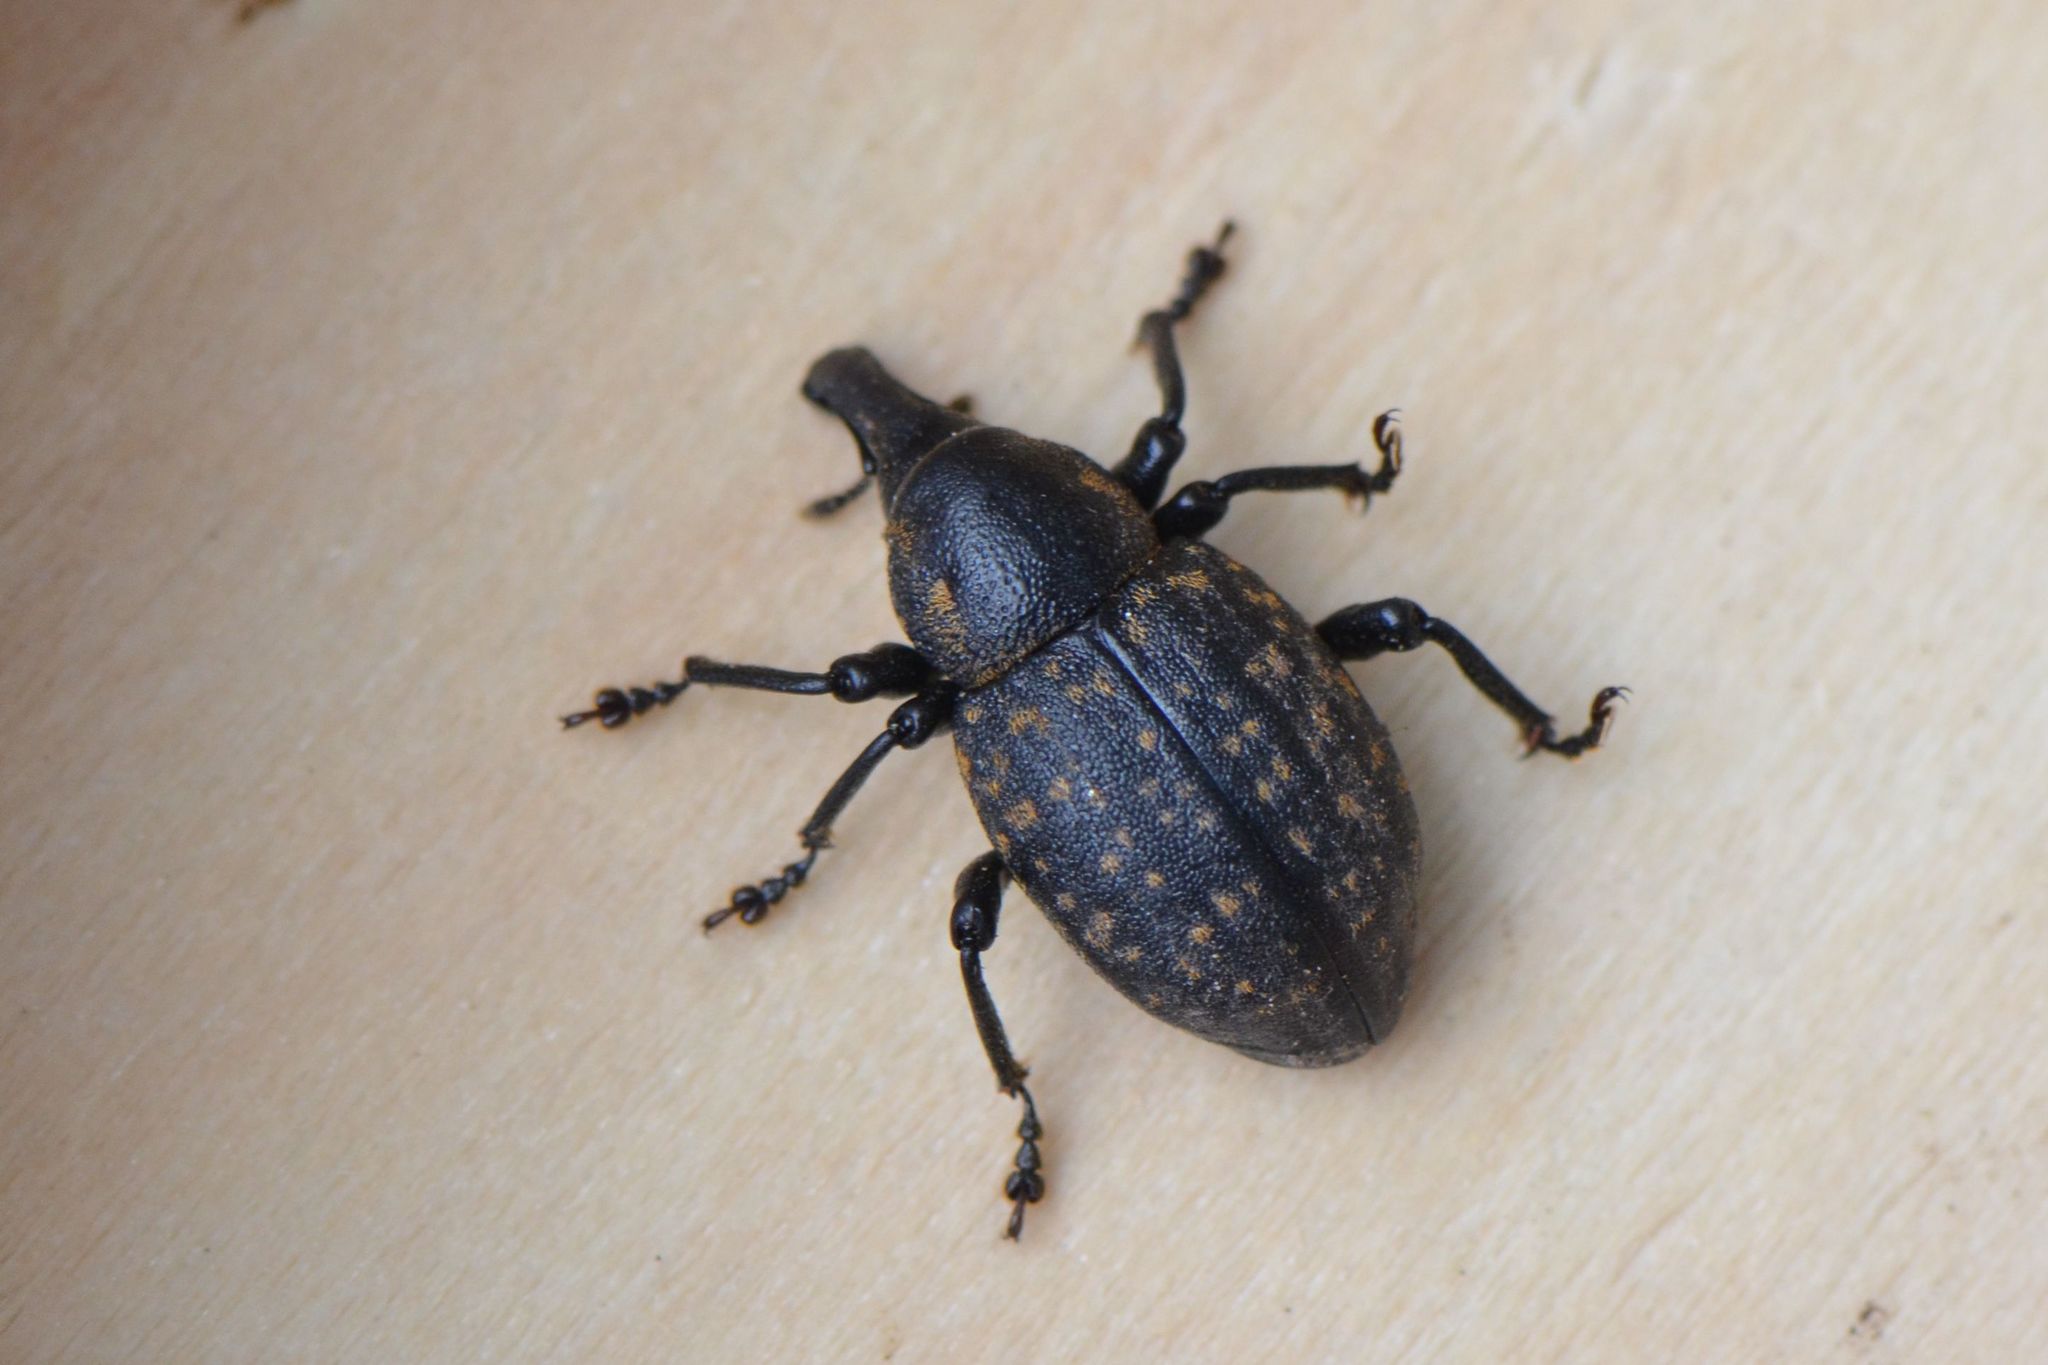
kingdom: Animalia
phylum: Arthropoda
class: Insecta
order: Coleoptera
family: Curculionidae
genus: Liparus
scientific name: Liparus germanus
